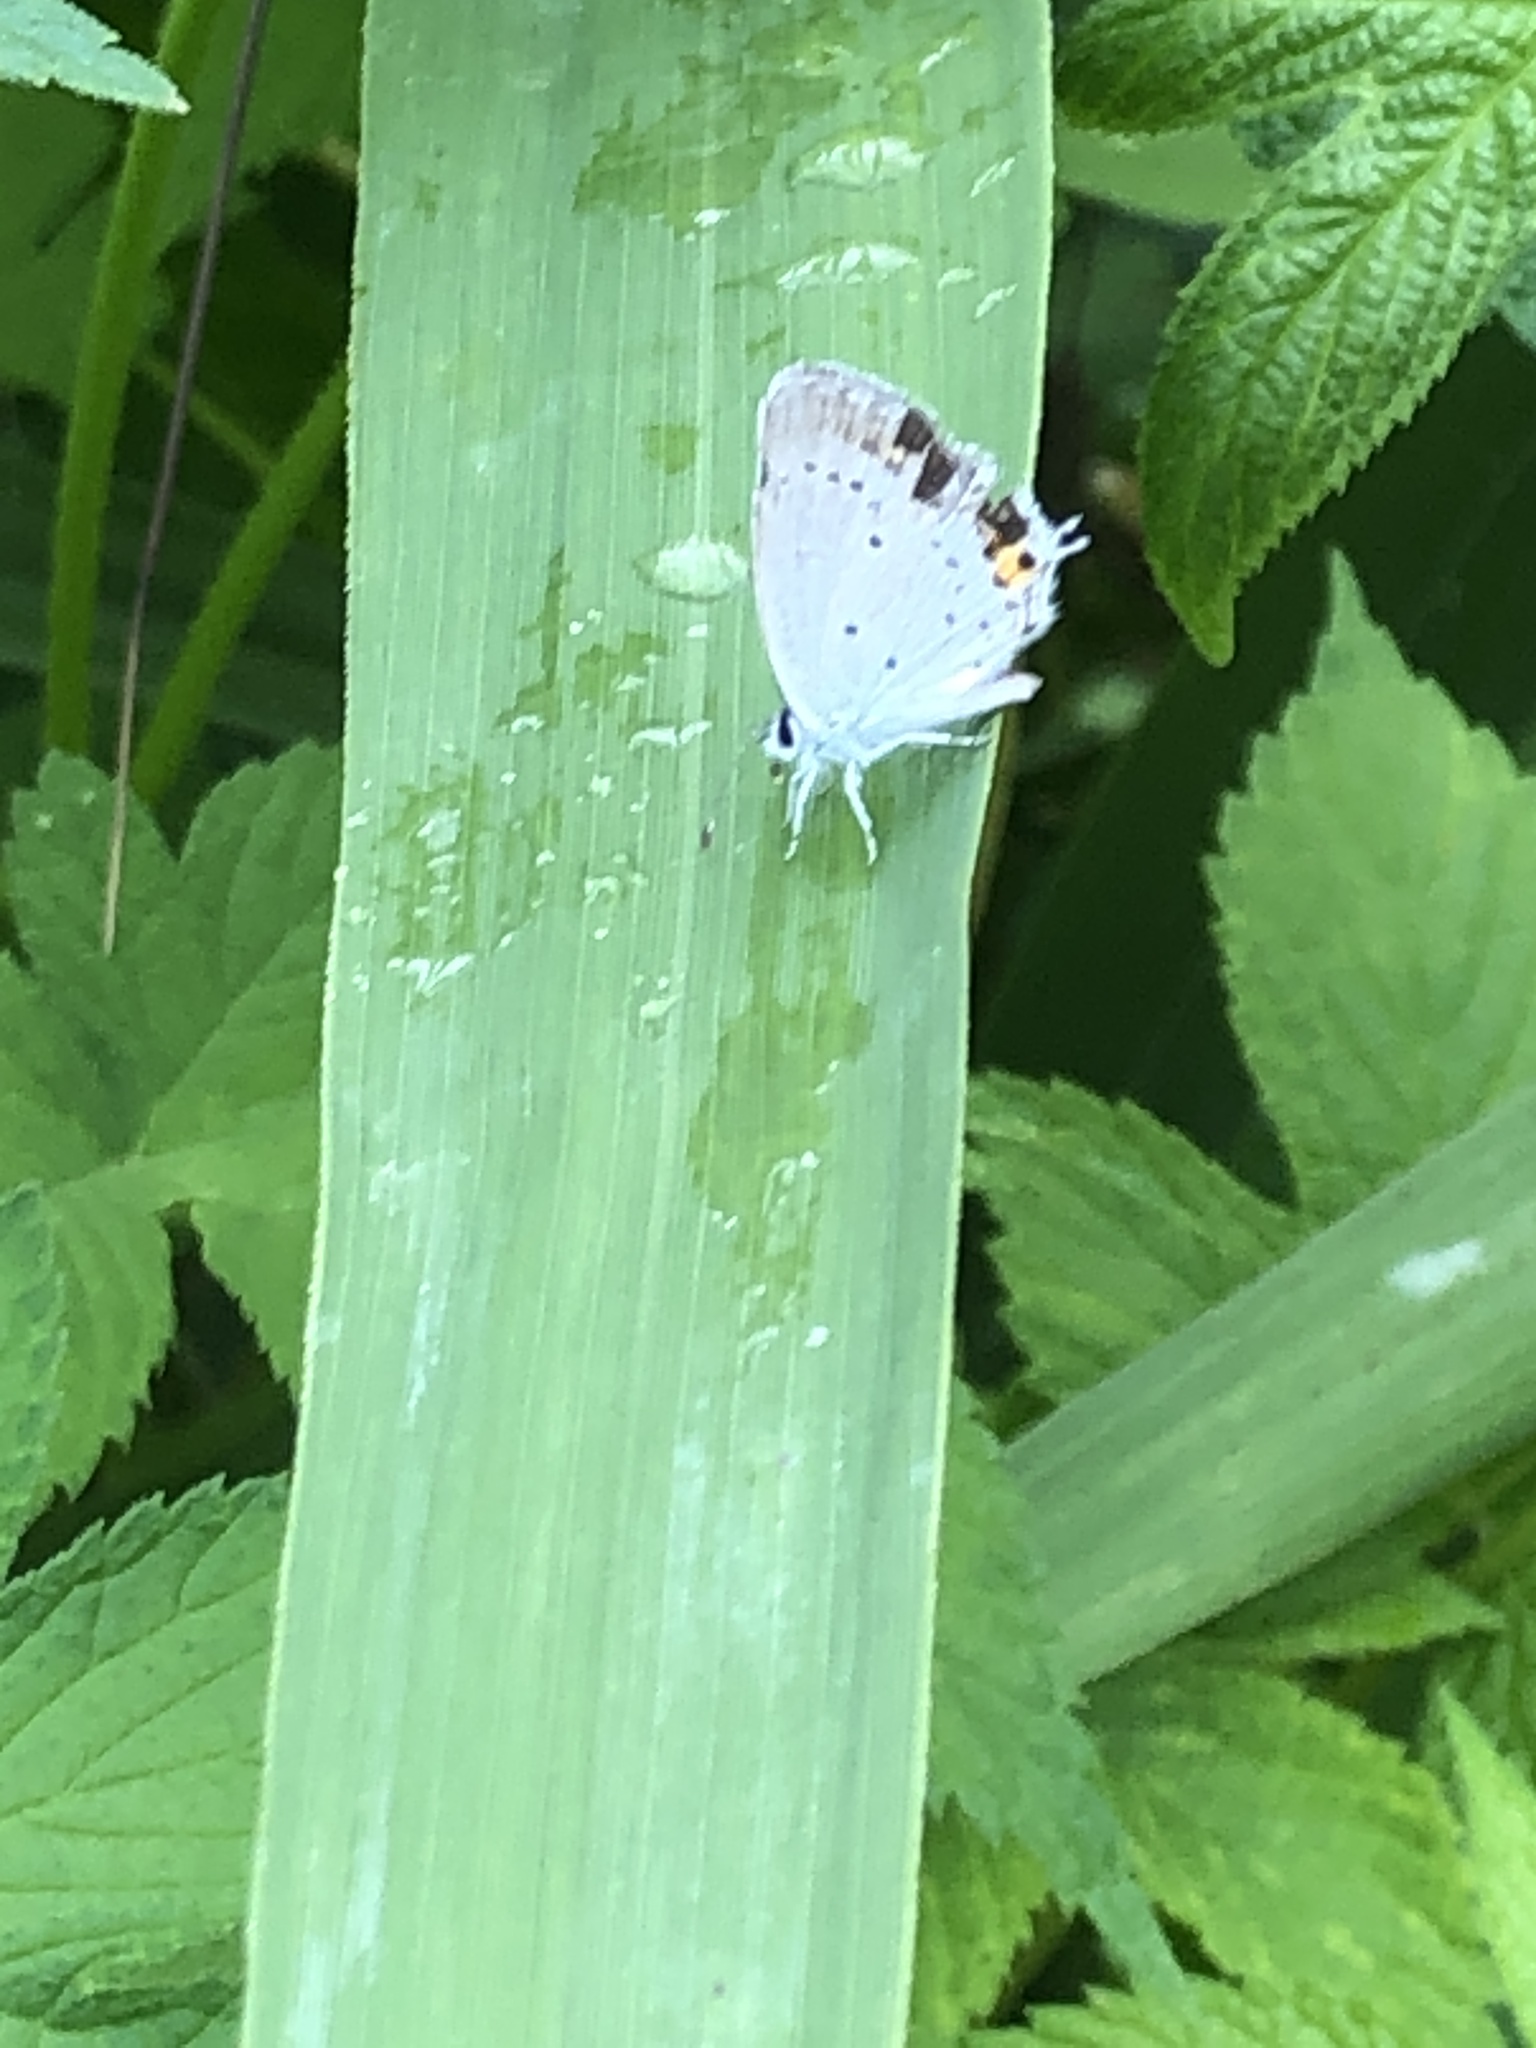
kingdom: Animalia
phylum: Arthropoda
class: Insecta
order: Lepidoptera
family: Lycaenidae
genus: Elkalyce
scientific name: Elkalyce argiades
